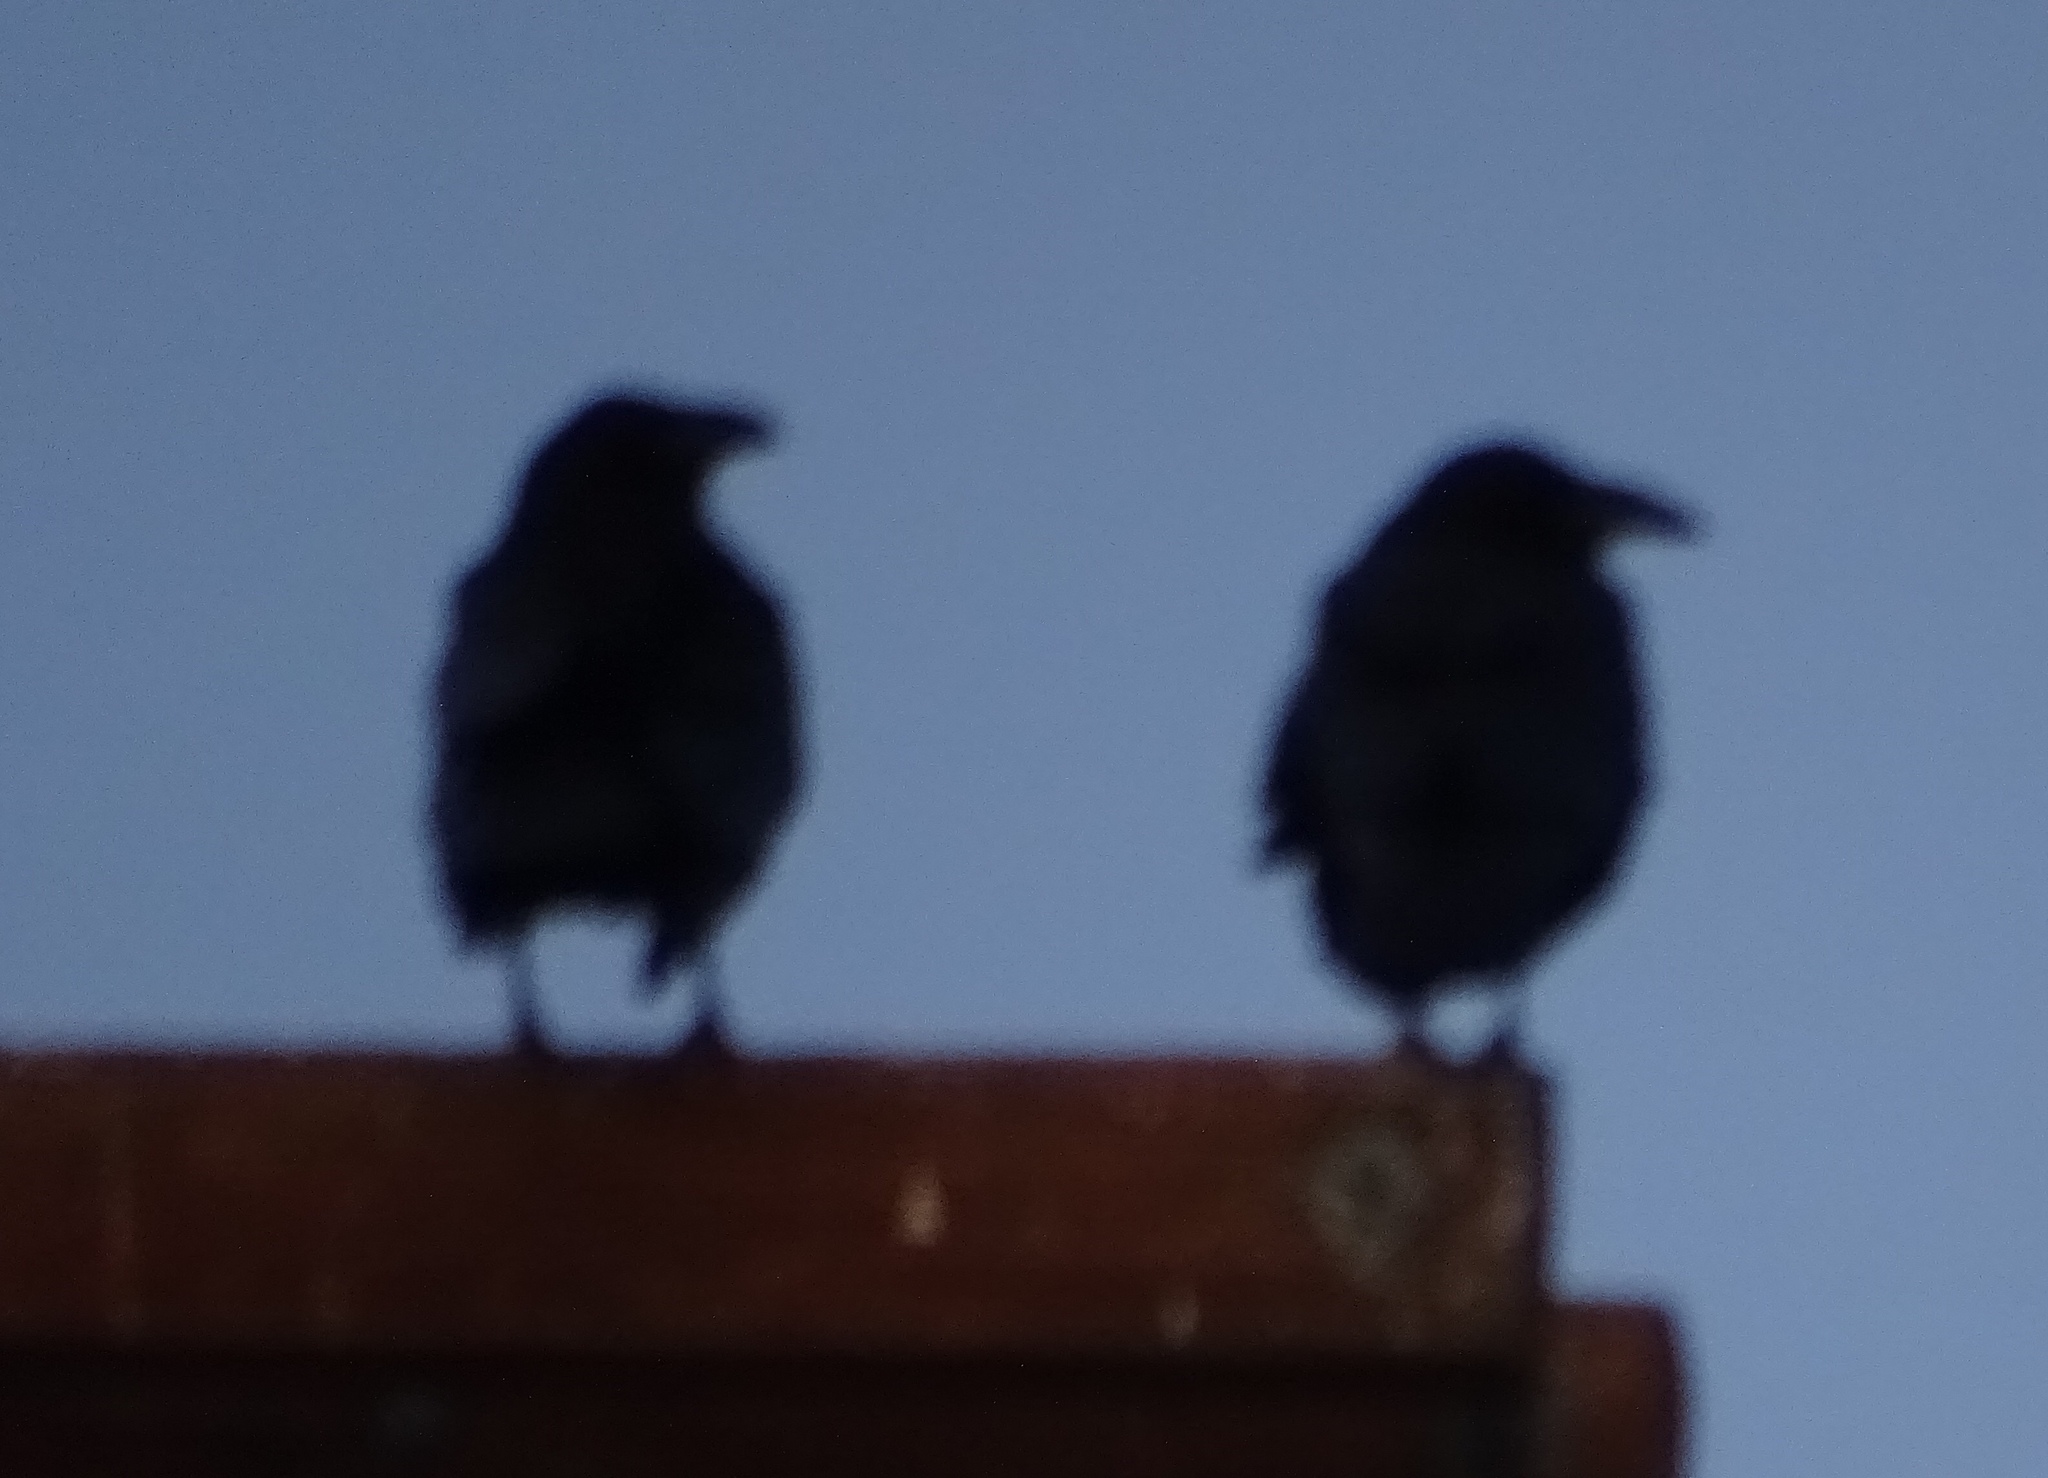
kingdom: Animalia
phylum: Chordata
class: Aves
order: Passeriformes
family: Corvidae
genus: Corvus
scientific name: Corvus corax
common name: Common raven
